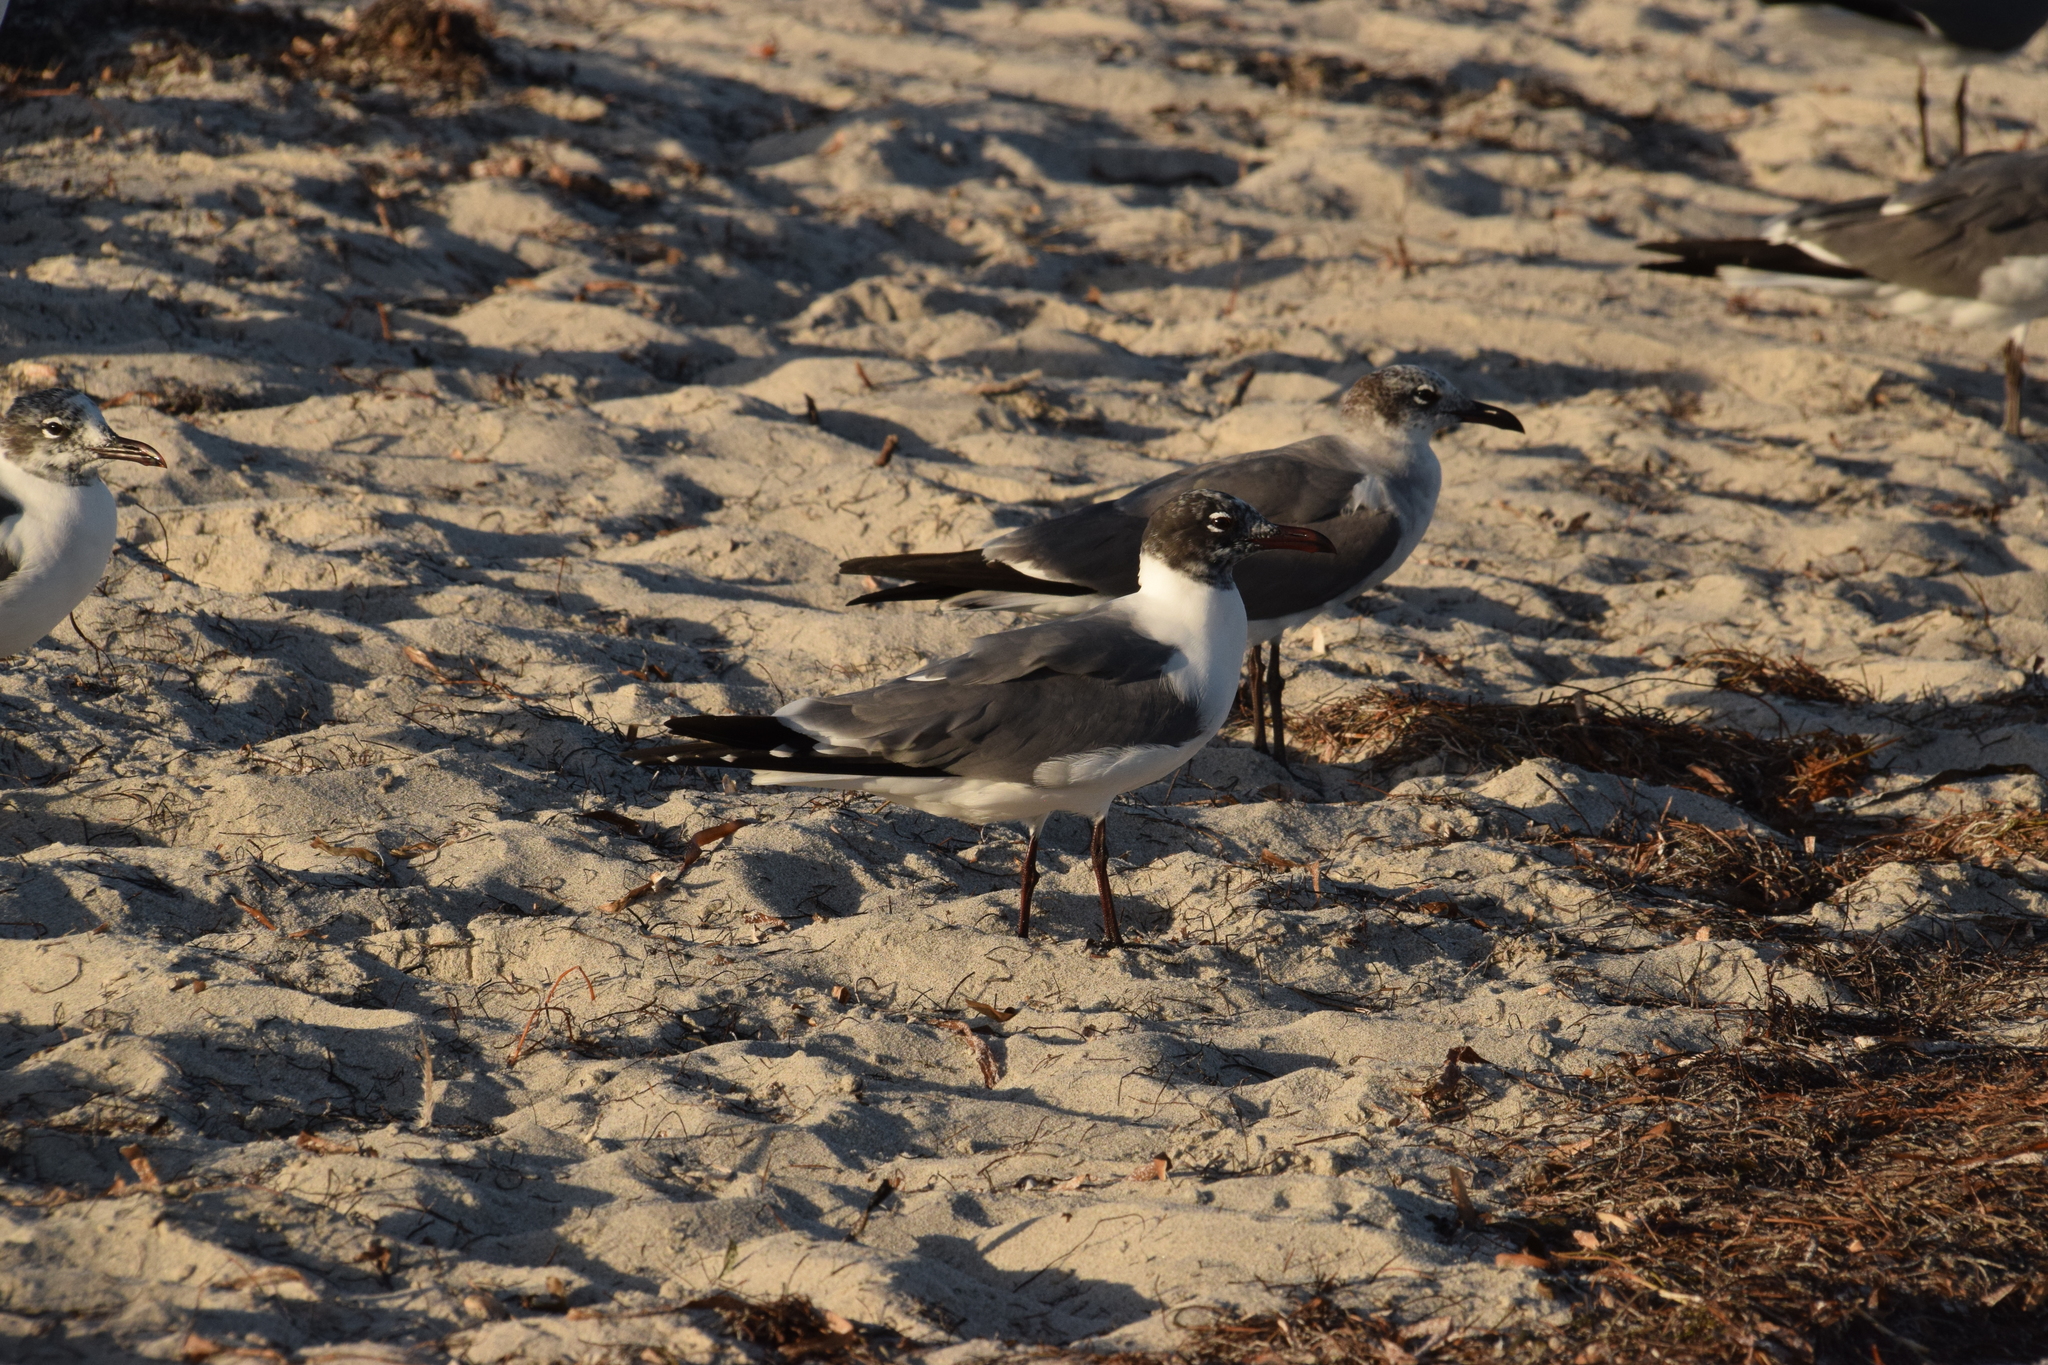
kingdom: Animalia
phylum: Chordata
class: Aves
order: Charadriiformes
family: Laridae
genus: Leucophaeus
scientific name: Leucophaeus atricilla
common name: Laughing gull
